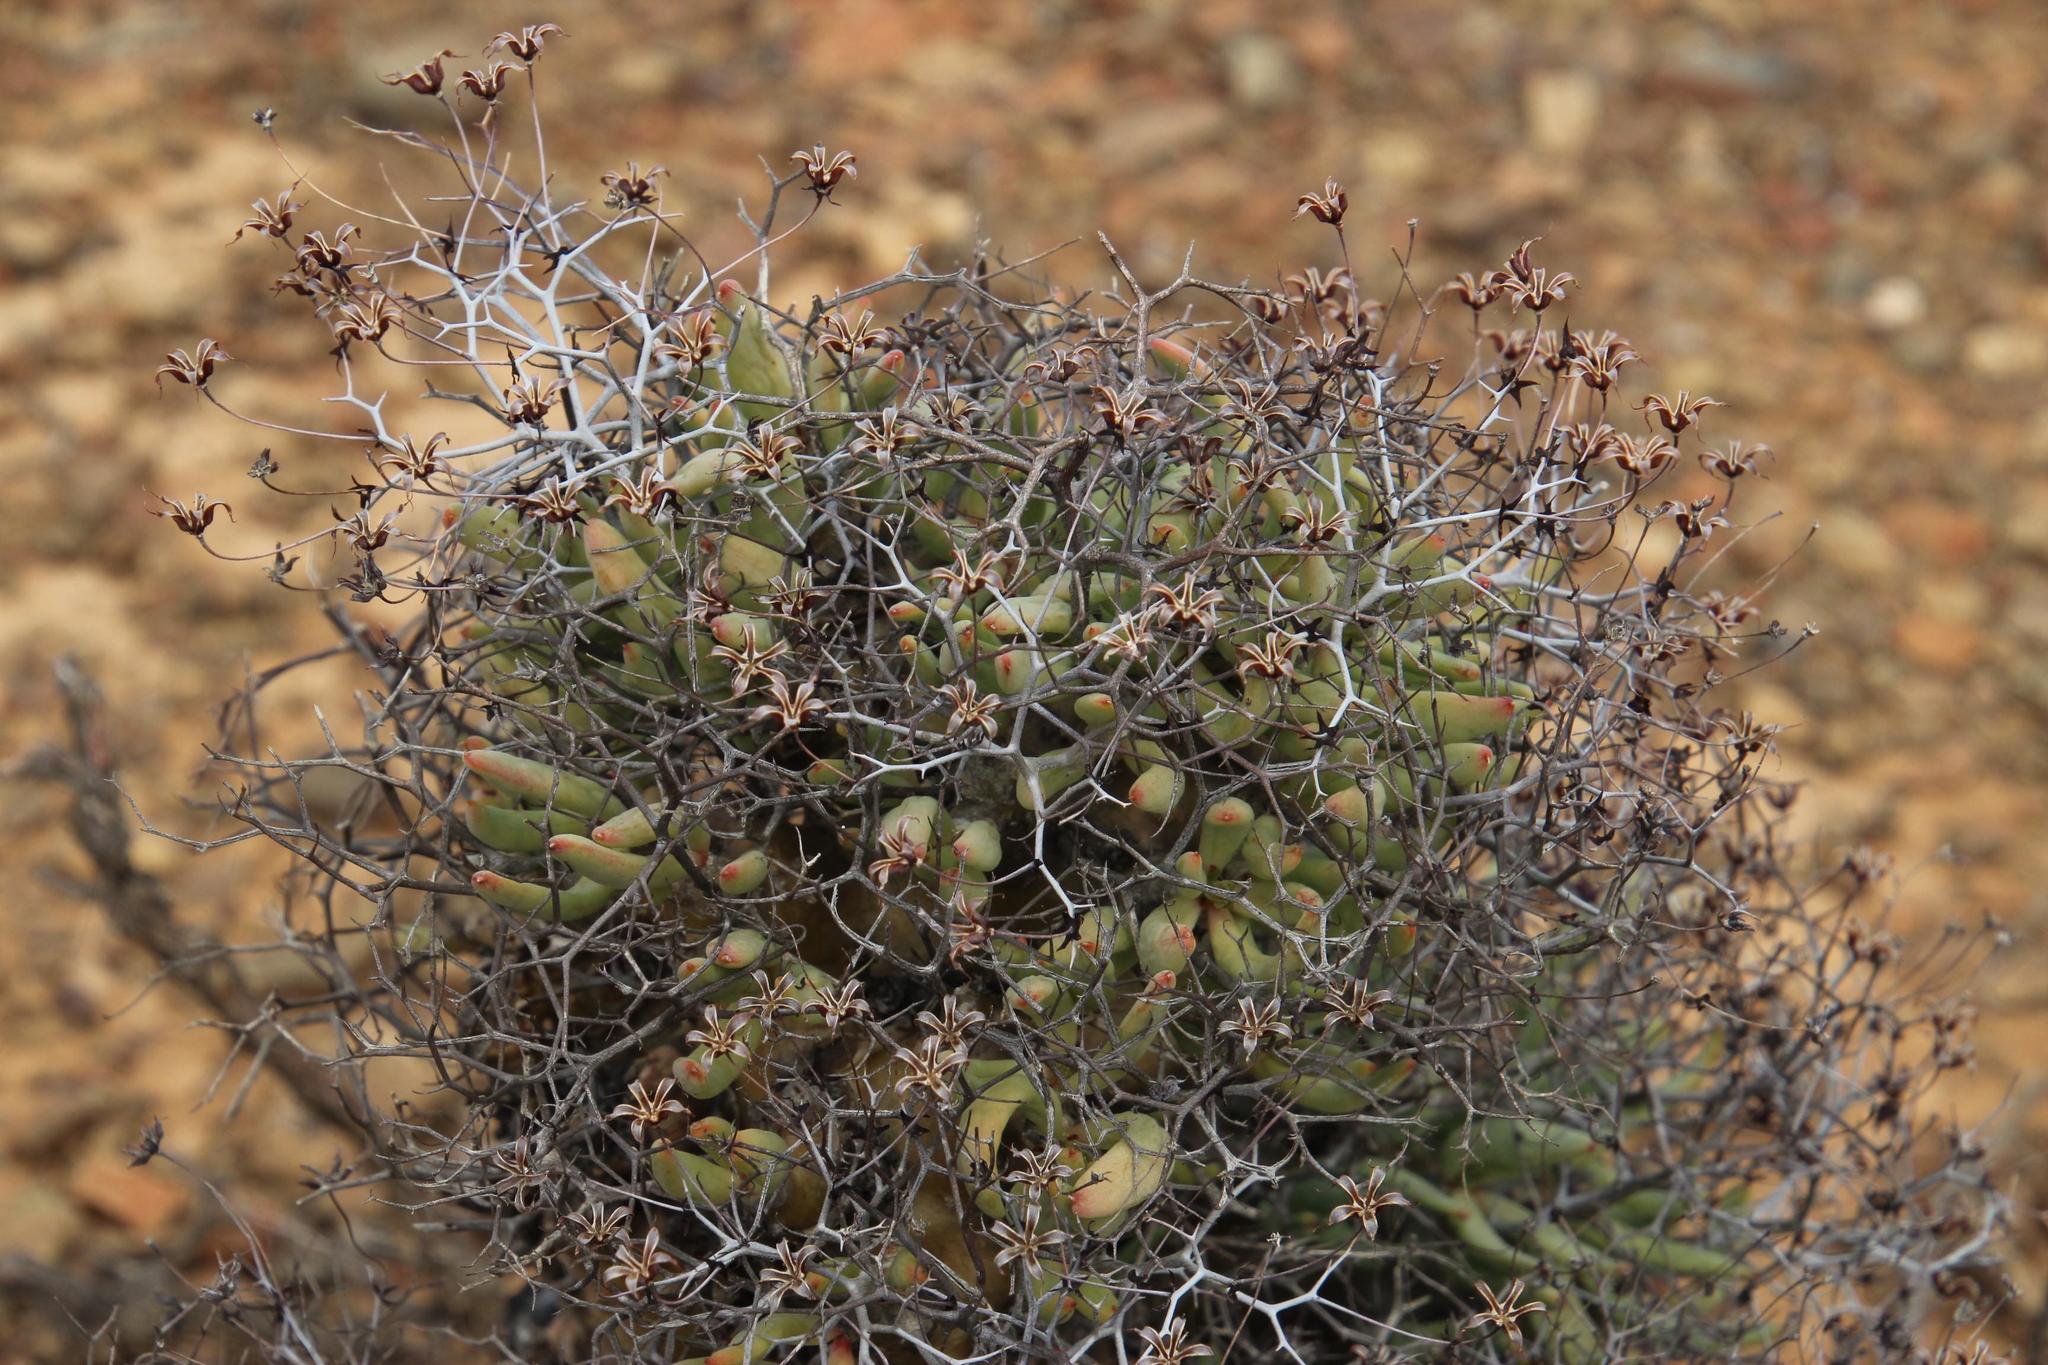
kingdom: Plantae
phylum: Tracheophyta
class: Magnoliopsida
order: Saxifragales
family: Crassulaceae
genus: Tylecodon
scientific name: Tylecodon reticulatus
